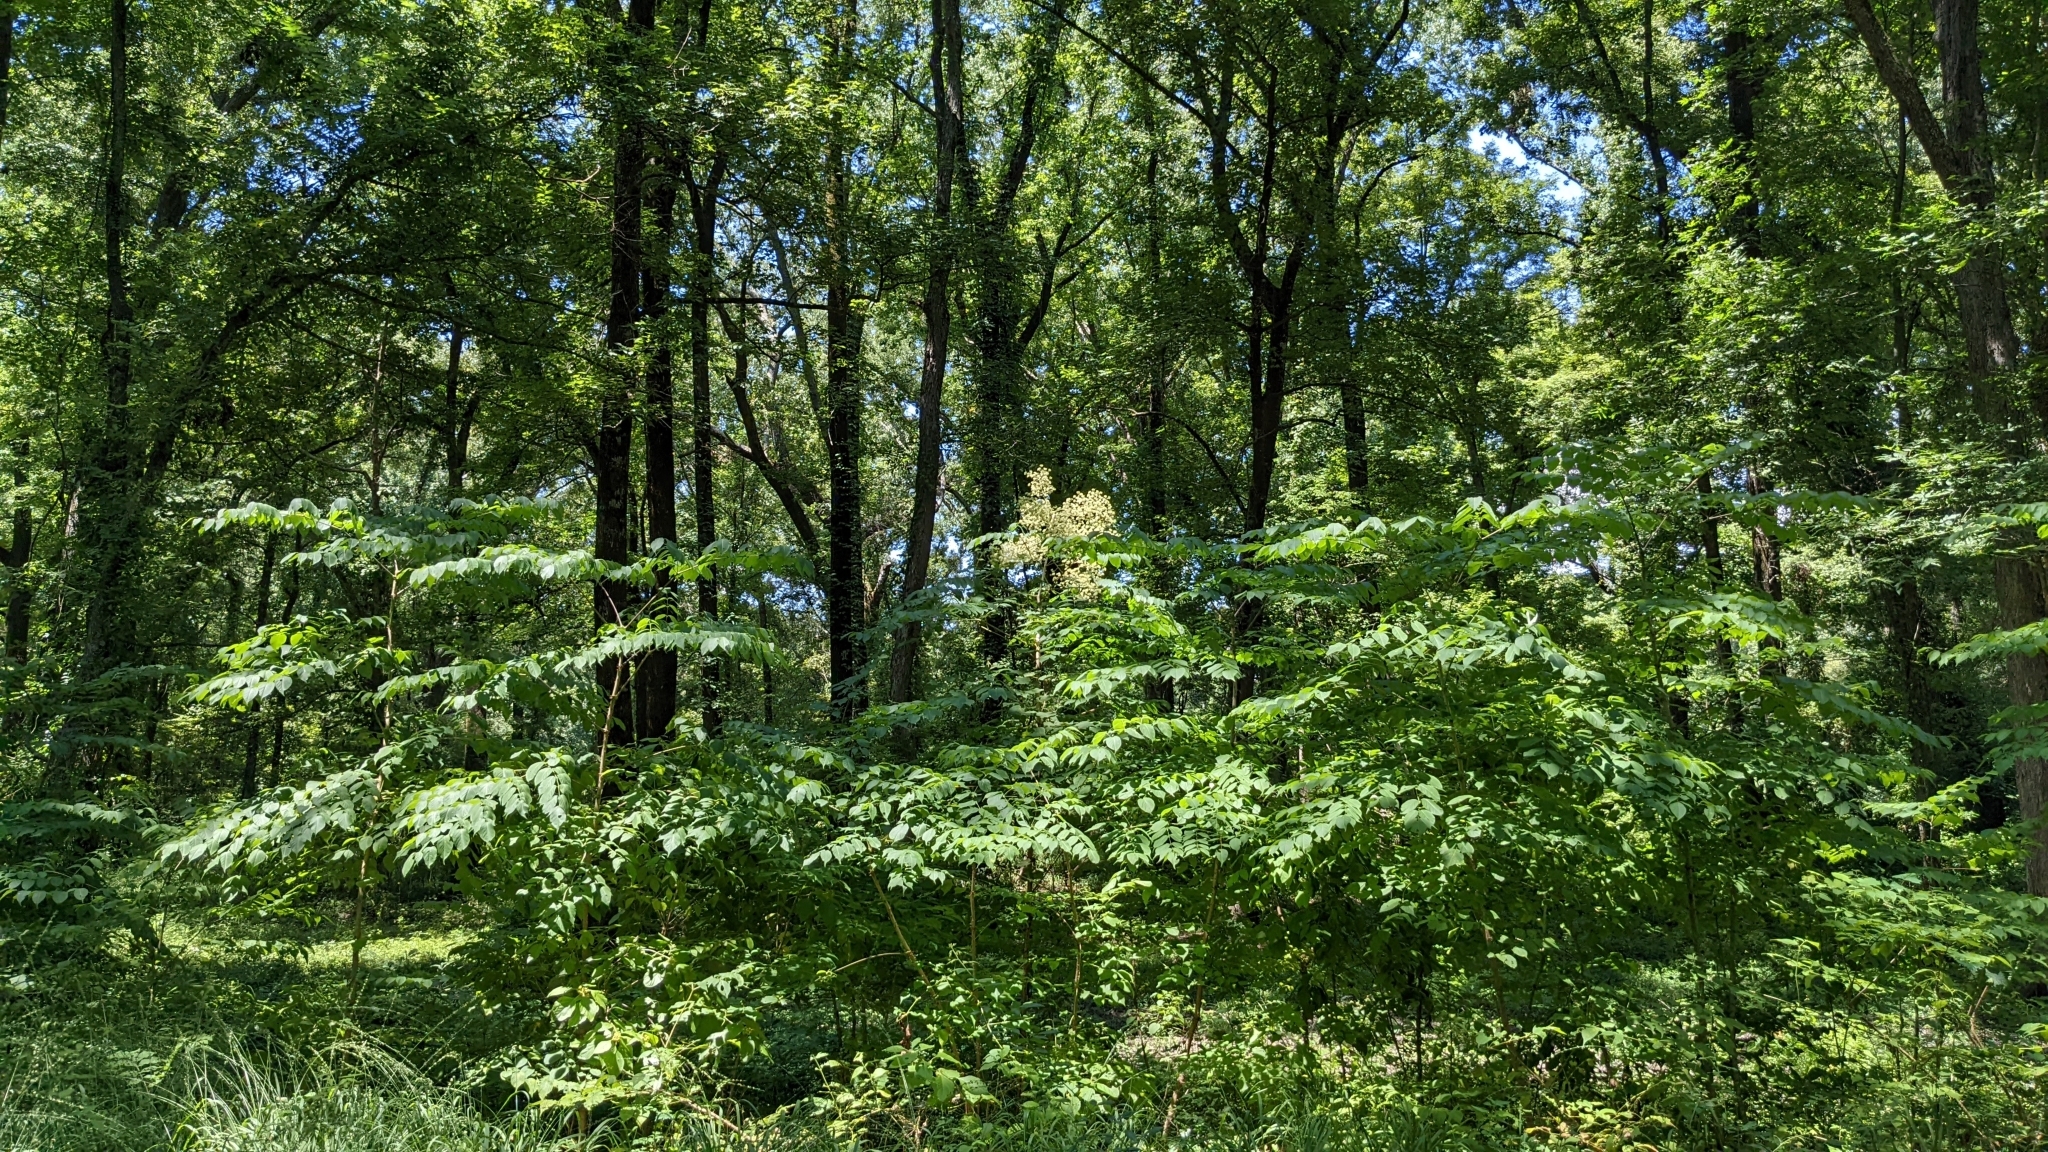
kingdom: Plantae
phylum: Tracheophyta
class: Magnoliopsida
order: Apiales
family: Araliaceae
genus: Aralia
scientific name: Aralia spinosa
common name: Hercules'-club
